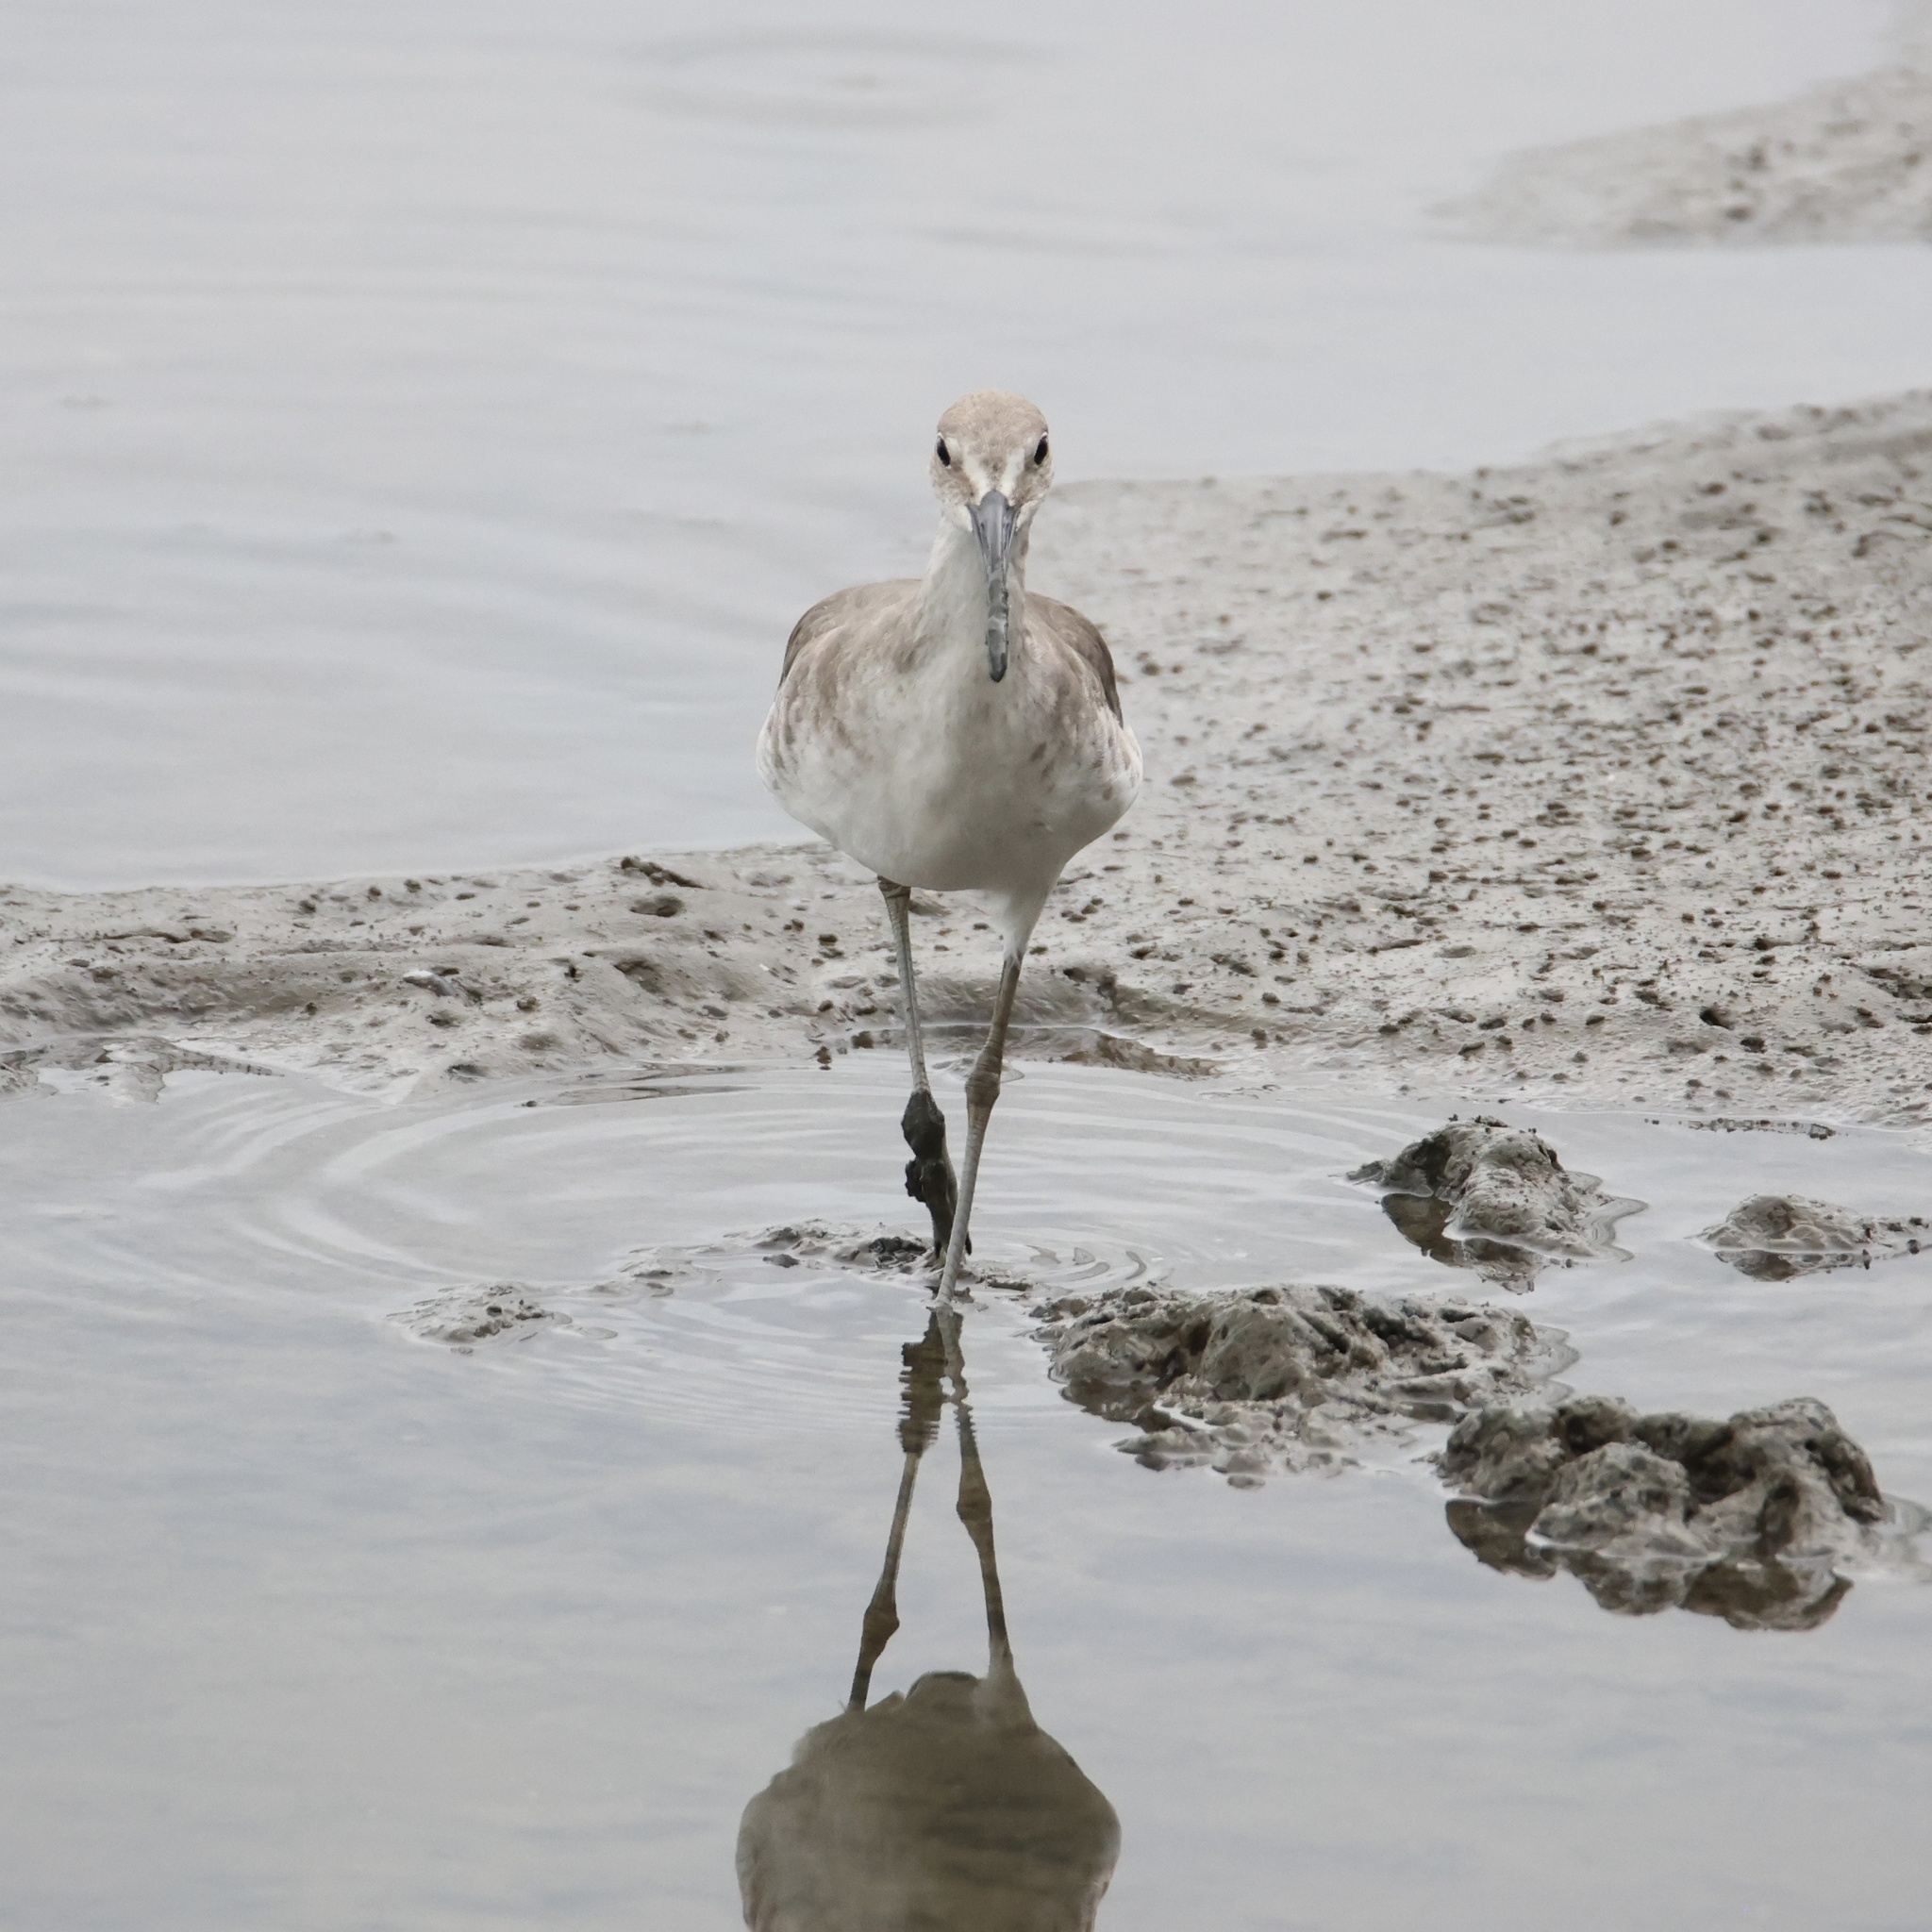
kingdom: Animalia
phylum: Chordata
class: Aves
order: Charadriiformes
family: Scolopacidae
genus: Tringa
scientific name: Tringa semipalmata
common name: Willet
